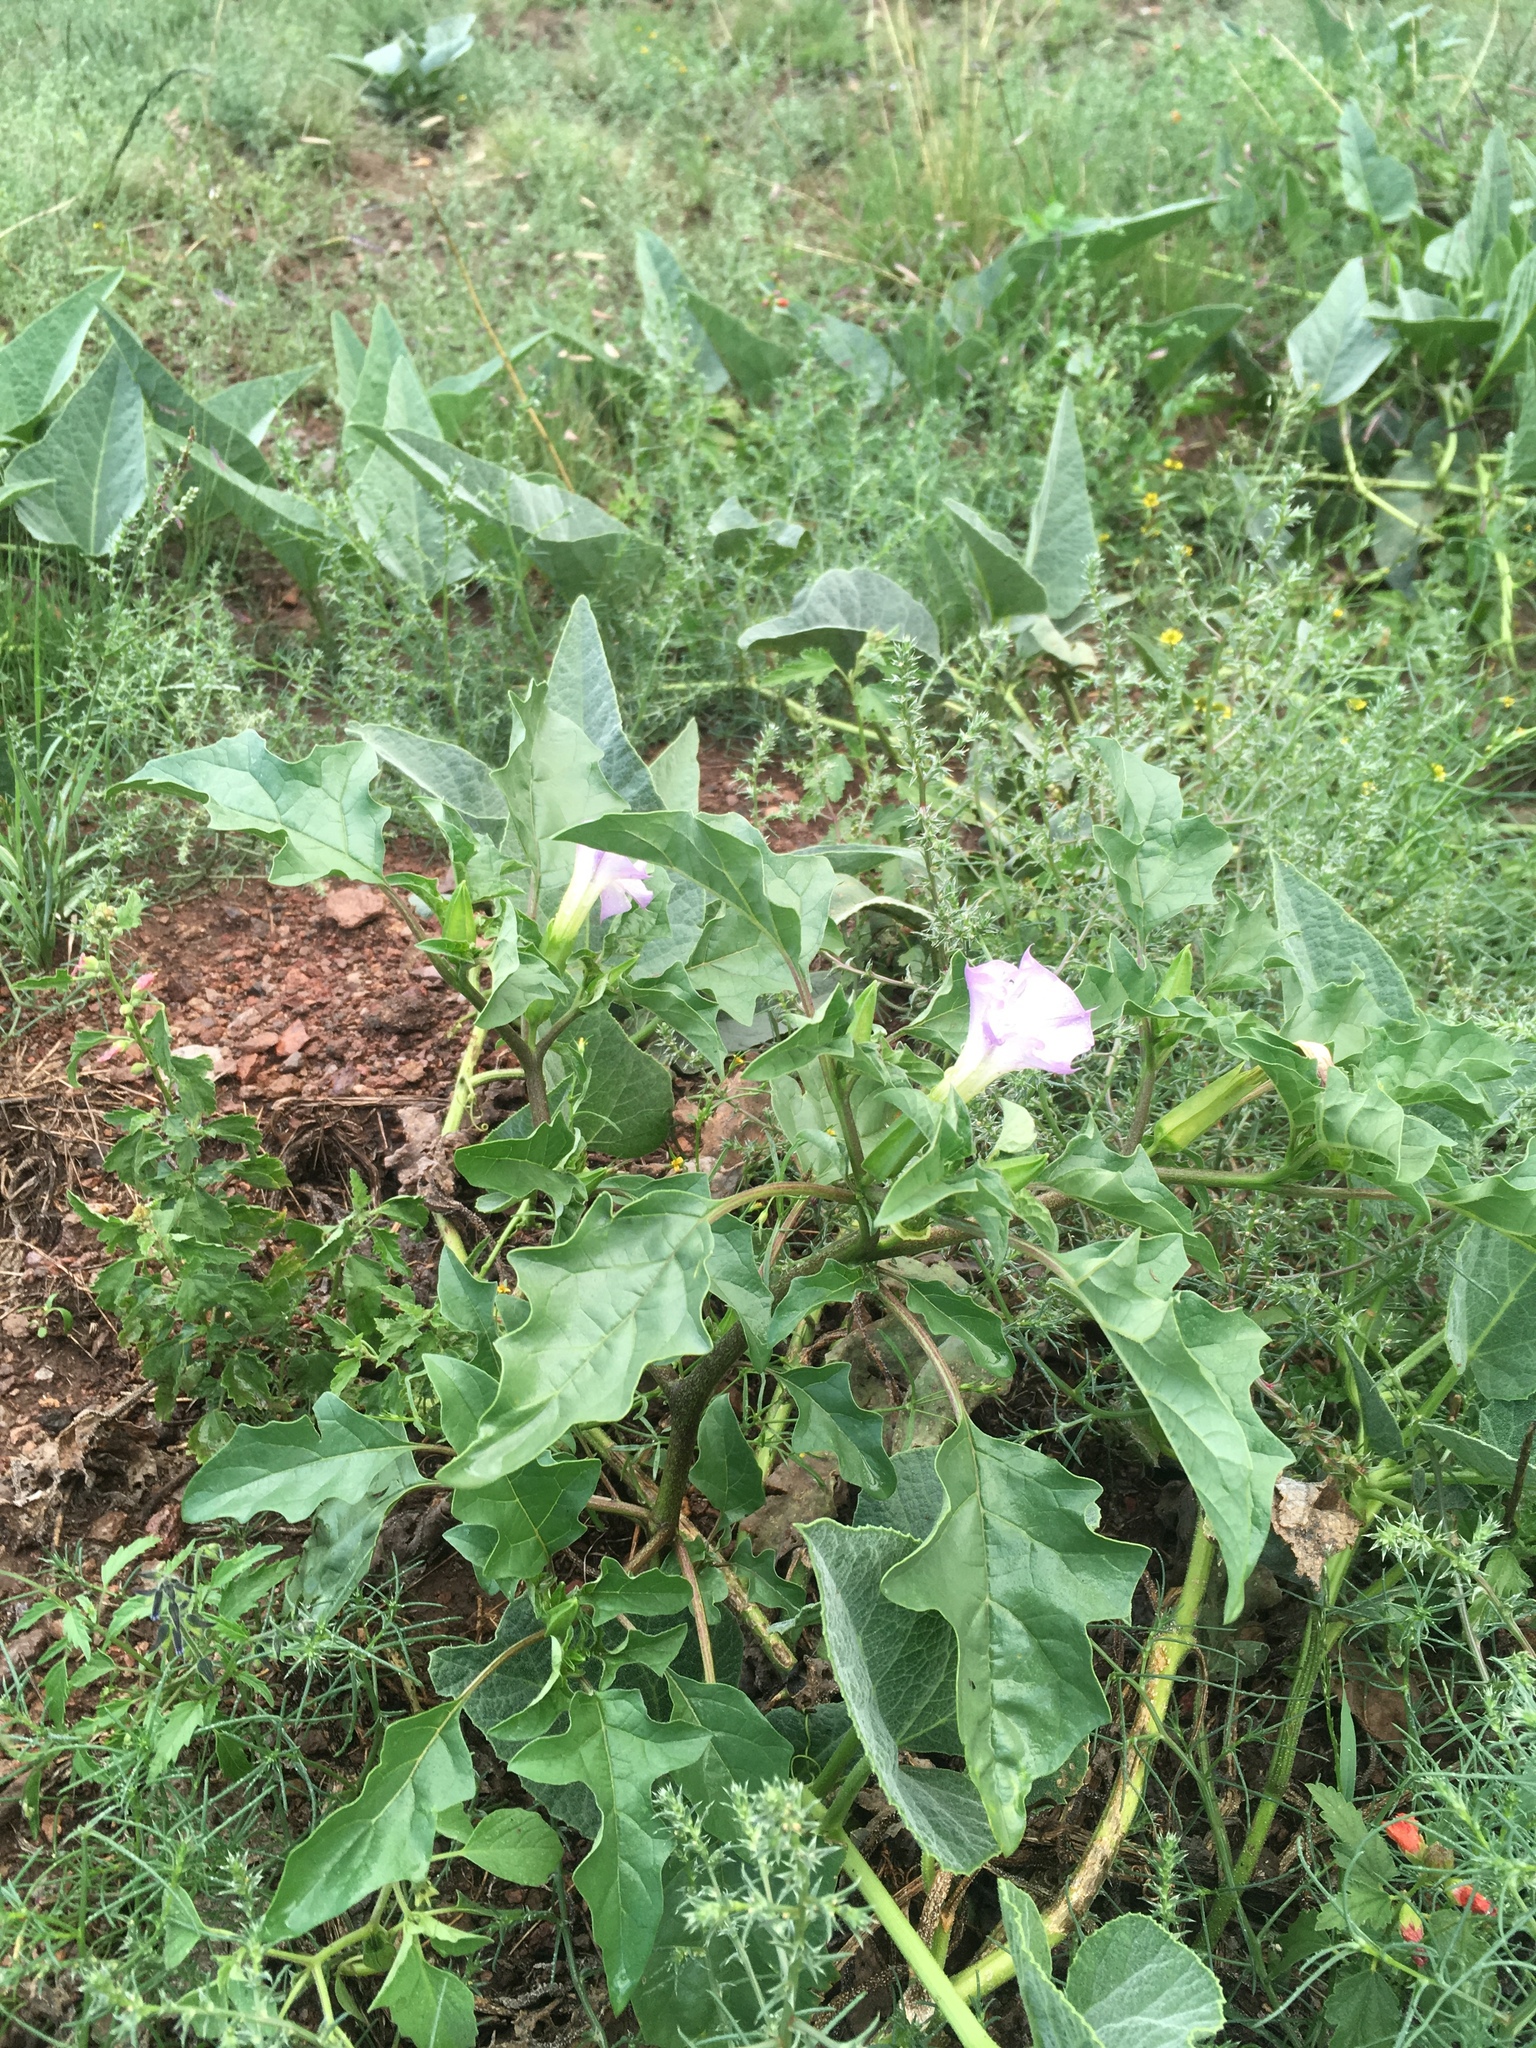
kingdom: Plantae
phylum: Tracheophyta
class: Magnoliopsida
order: Solanales
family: Solanaceae
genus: Datura
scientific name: Datura quercifolia
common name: Oak-leaf datura
